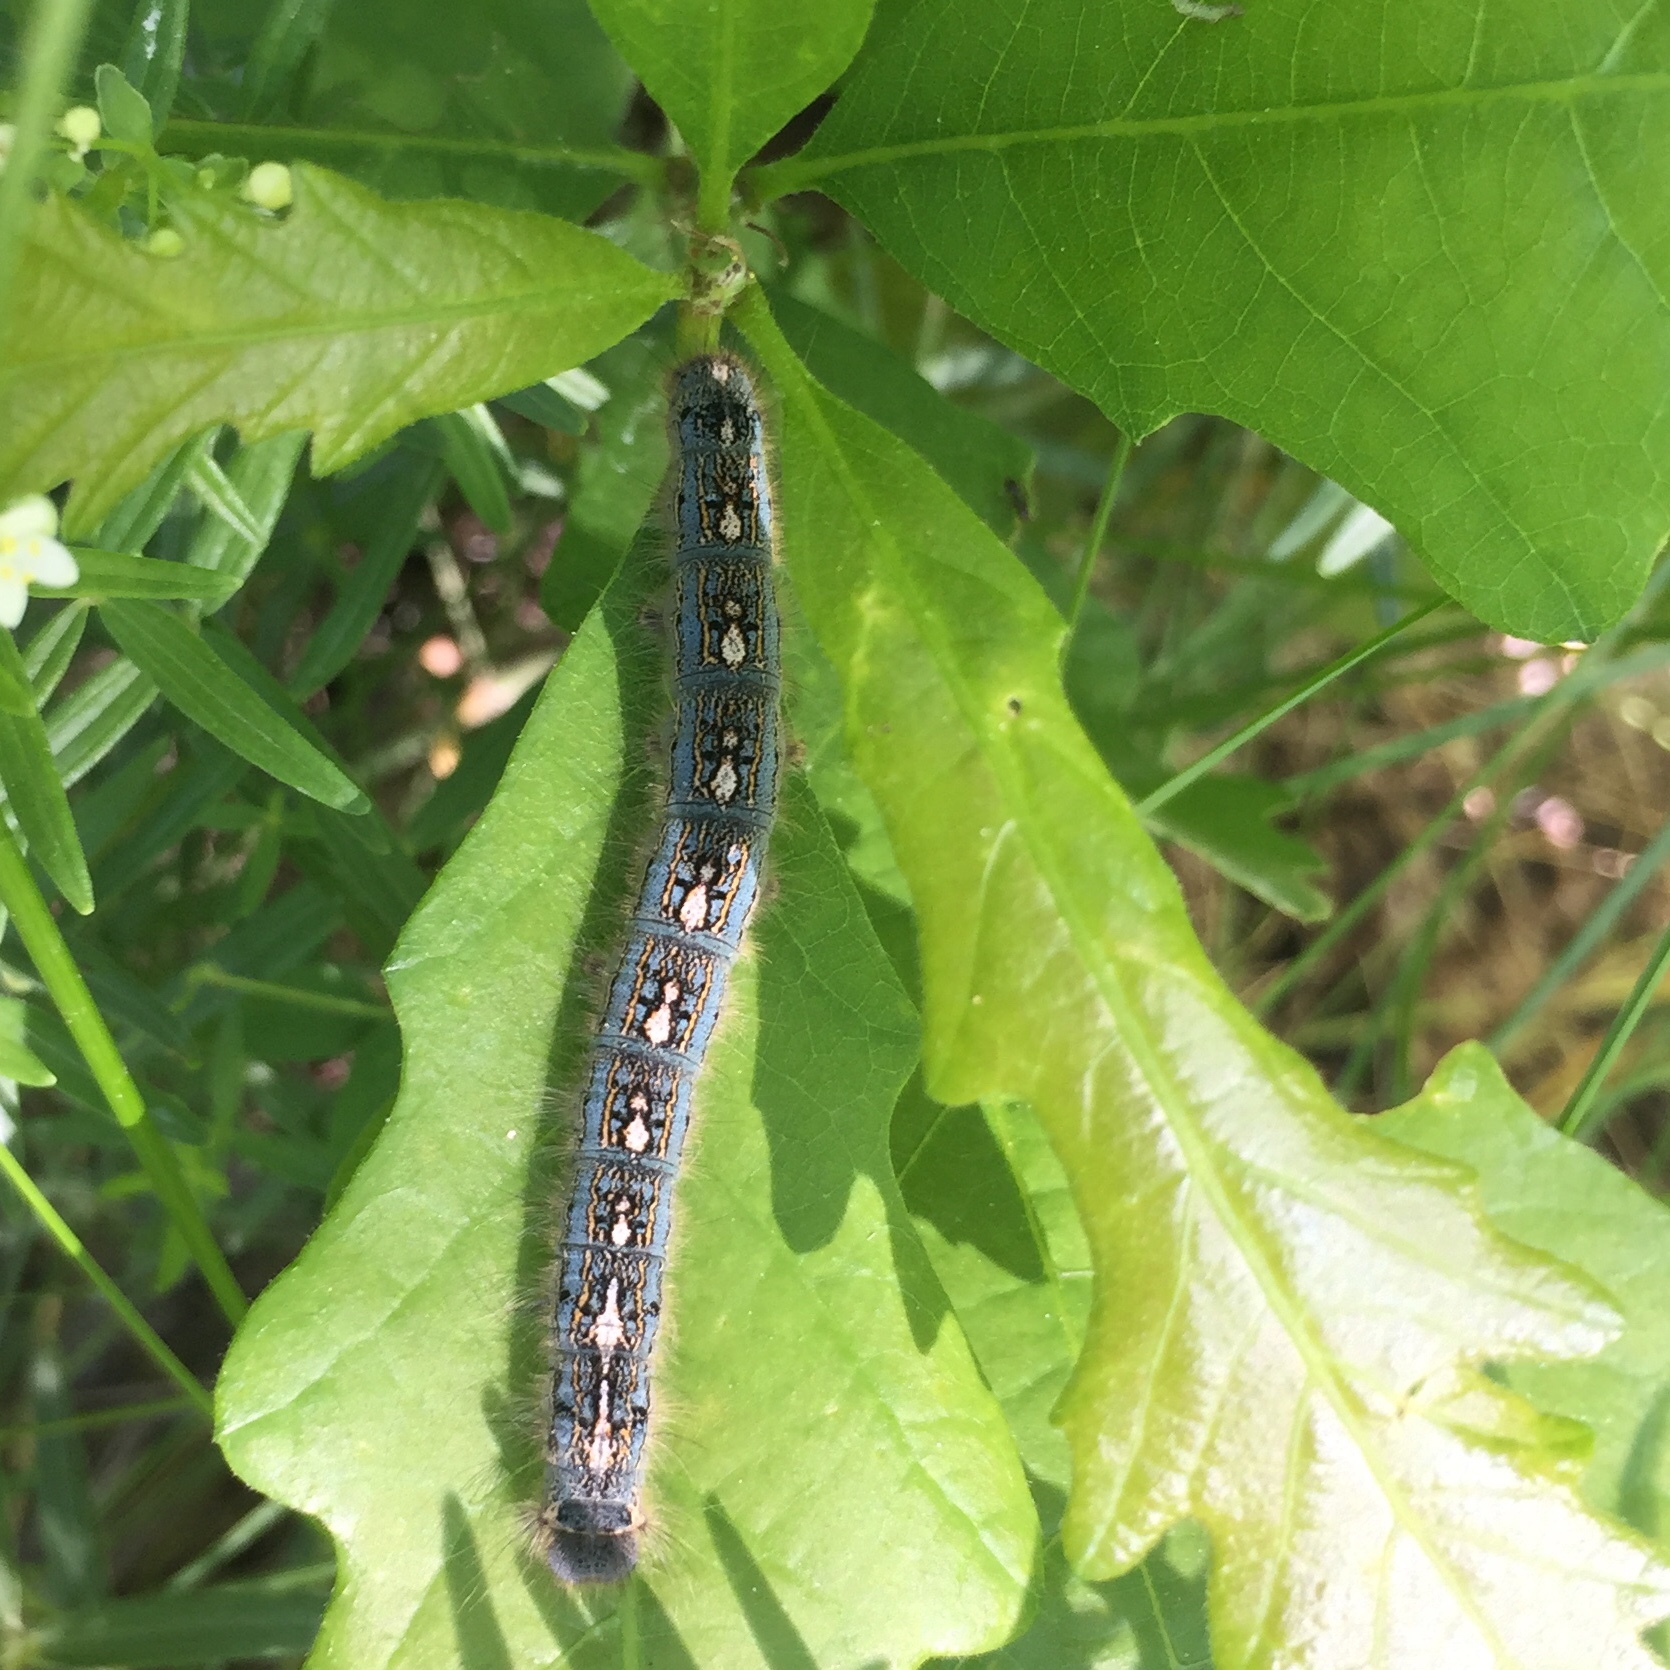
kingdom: Animalia
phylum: Arthropoda
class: Insecta
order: Lepidoptera
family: Lasiocampidae
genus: Malacosoma
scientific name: Malacosoma disstria
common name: Forest tent caterpillar
